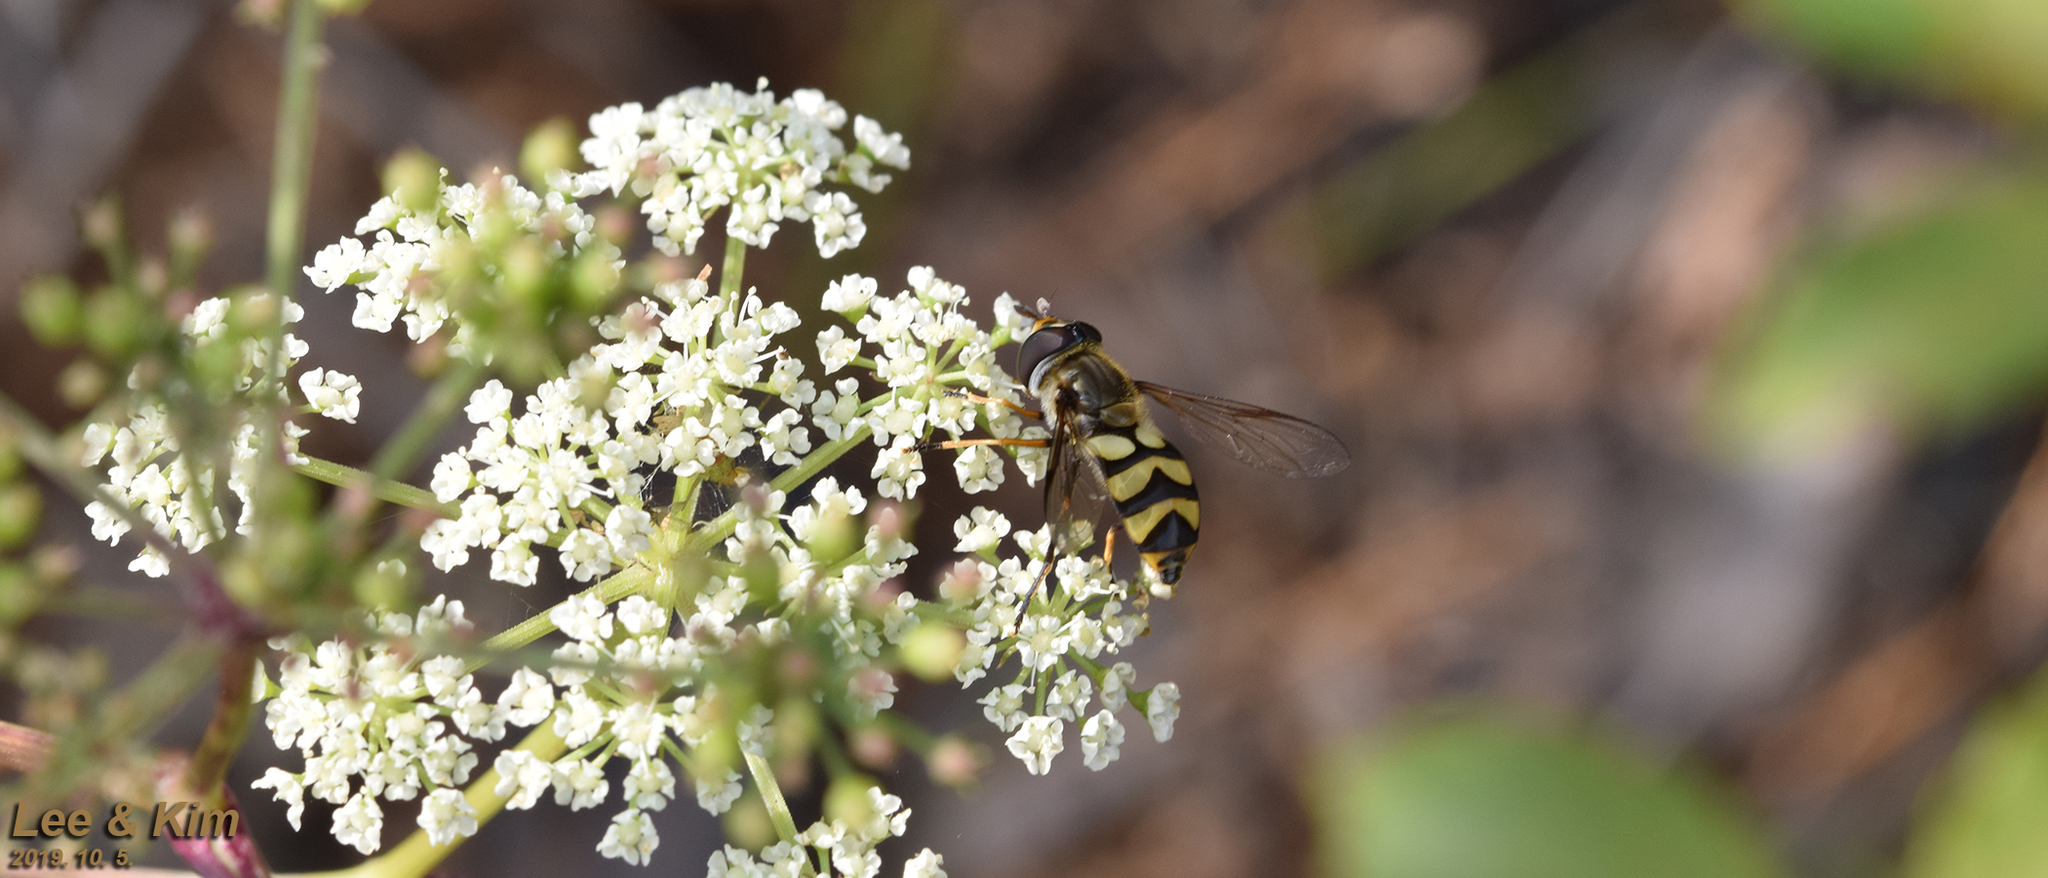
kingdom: Animalia
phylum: Arthropoda
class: Insecta
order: Diptera
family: Syrphidae
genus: Didea
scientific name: Didea fasciata
